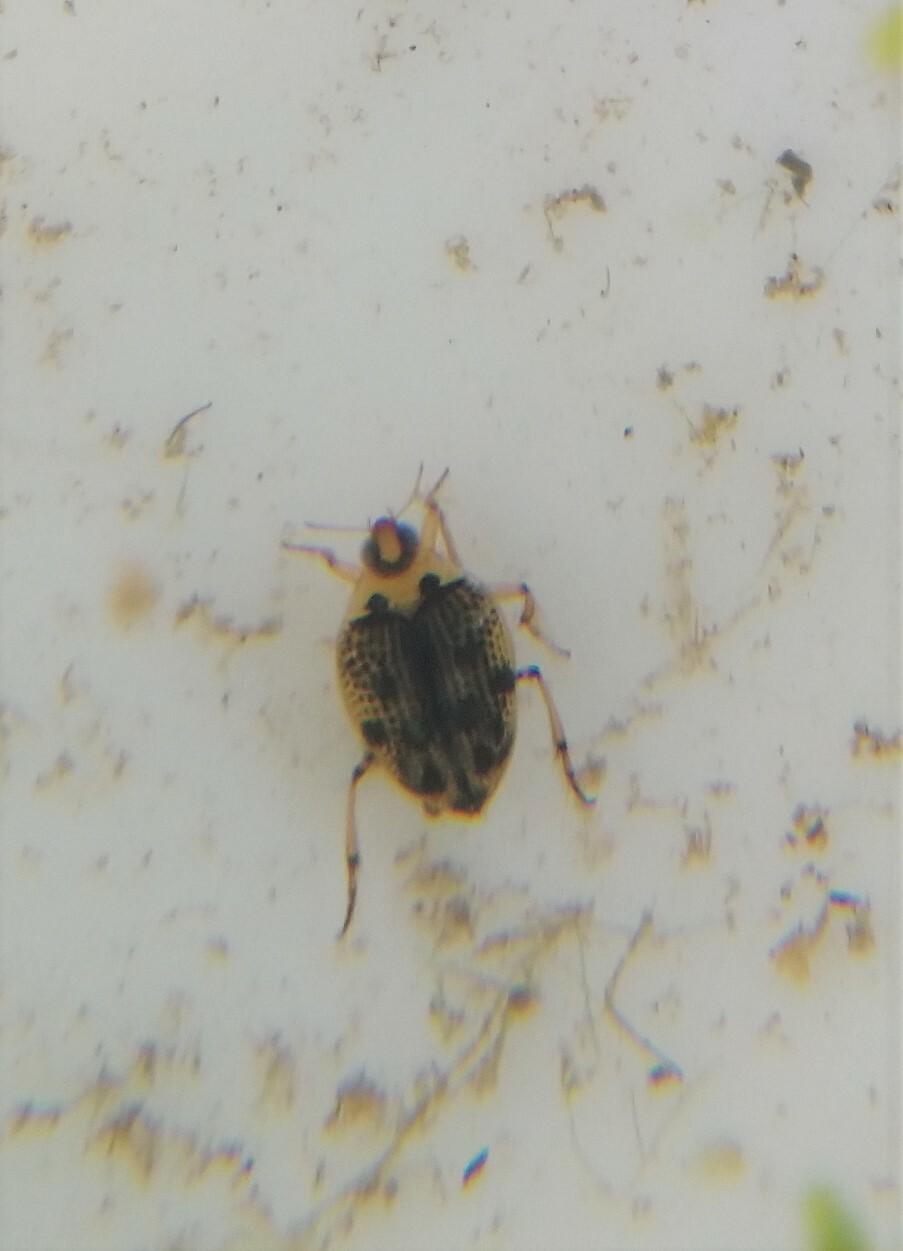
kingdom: Animalia
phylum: Arthropoda
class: Insecta
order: Coleoptera
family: Haliplidae
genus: Peltodytes
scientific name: Peltodytes edentulus
